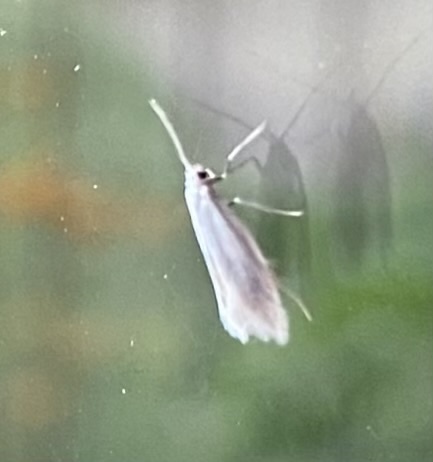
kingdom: Animalia
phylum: Arthropoda
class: Insecta
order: Lepidoptera
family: Elachistidae
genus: Elachista
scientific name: Elachista argentella
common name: Swan-feather dwarf
